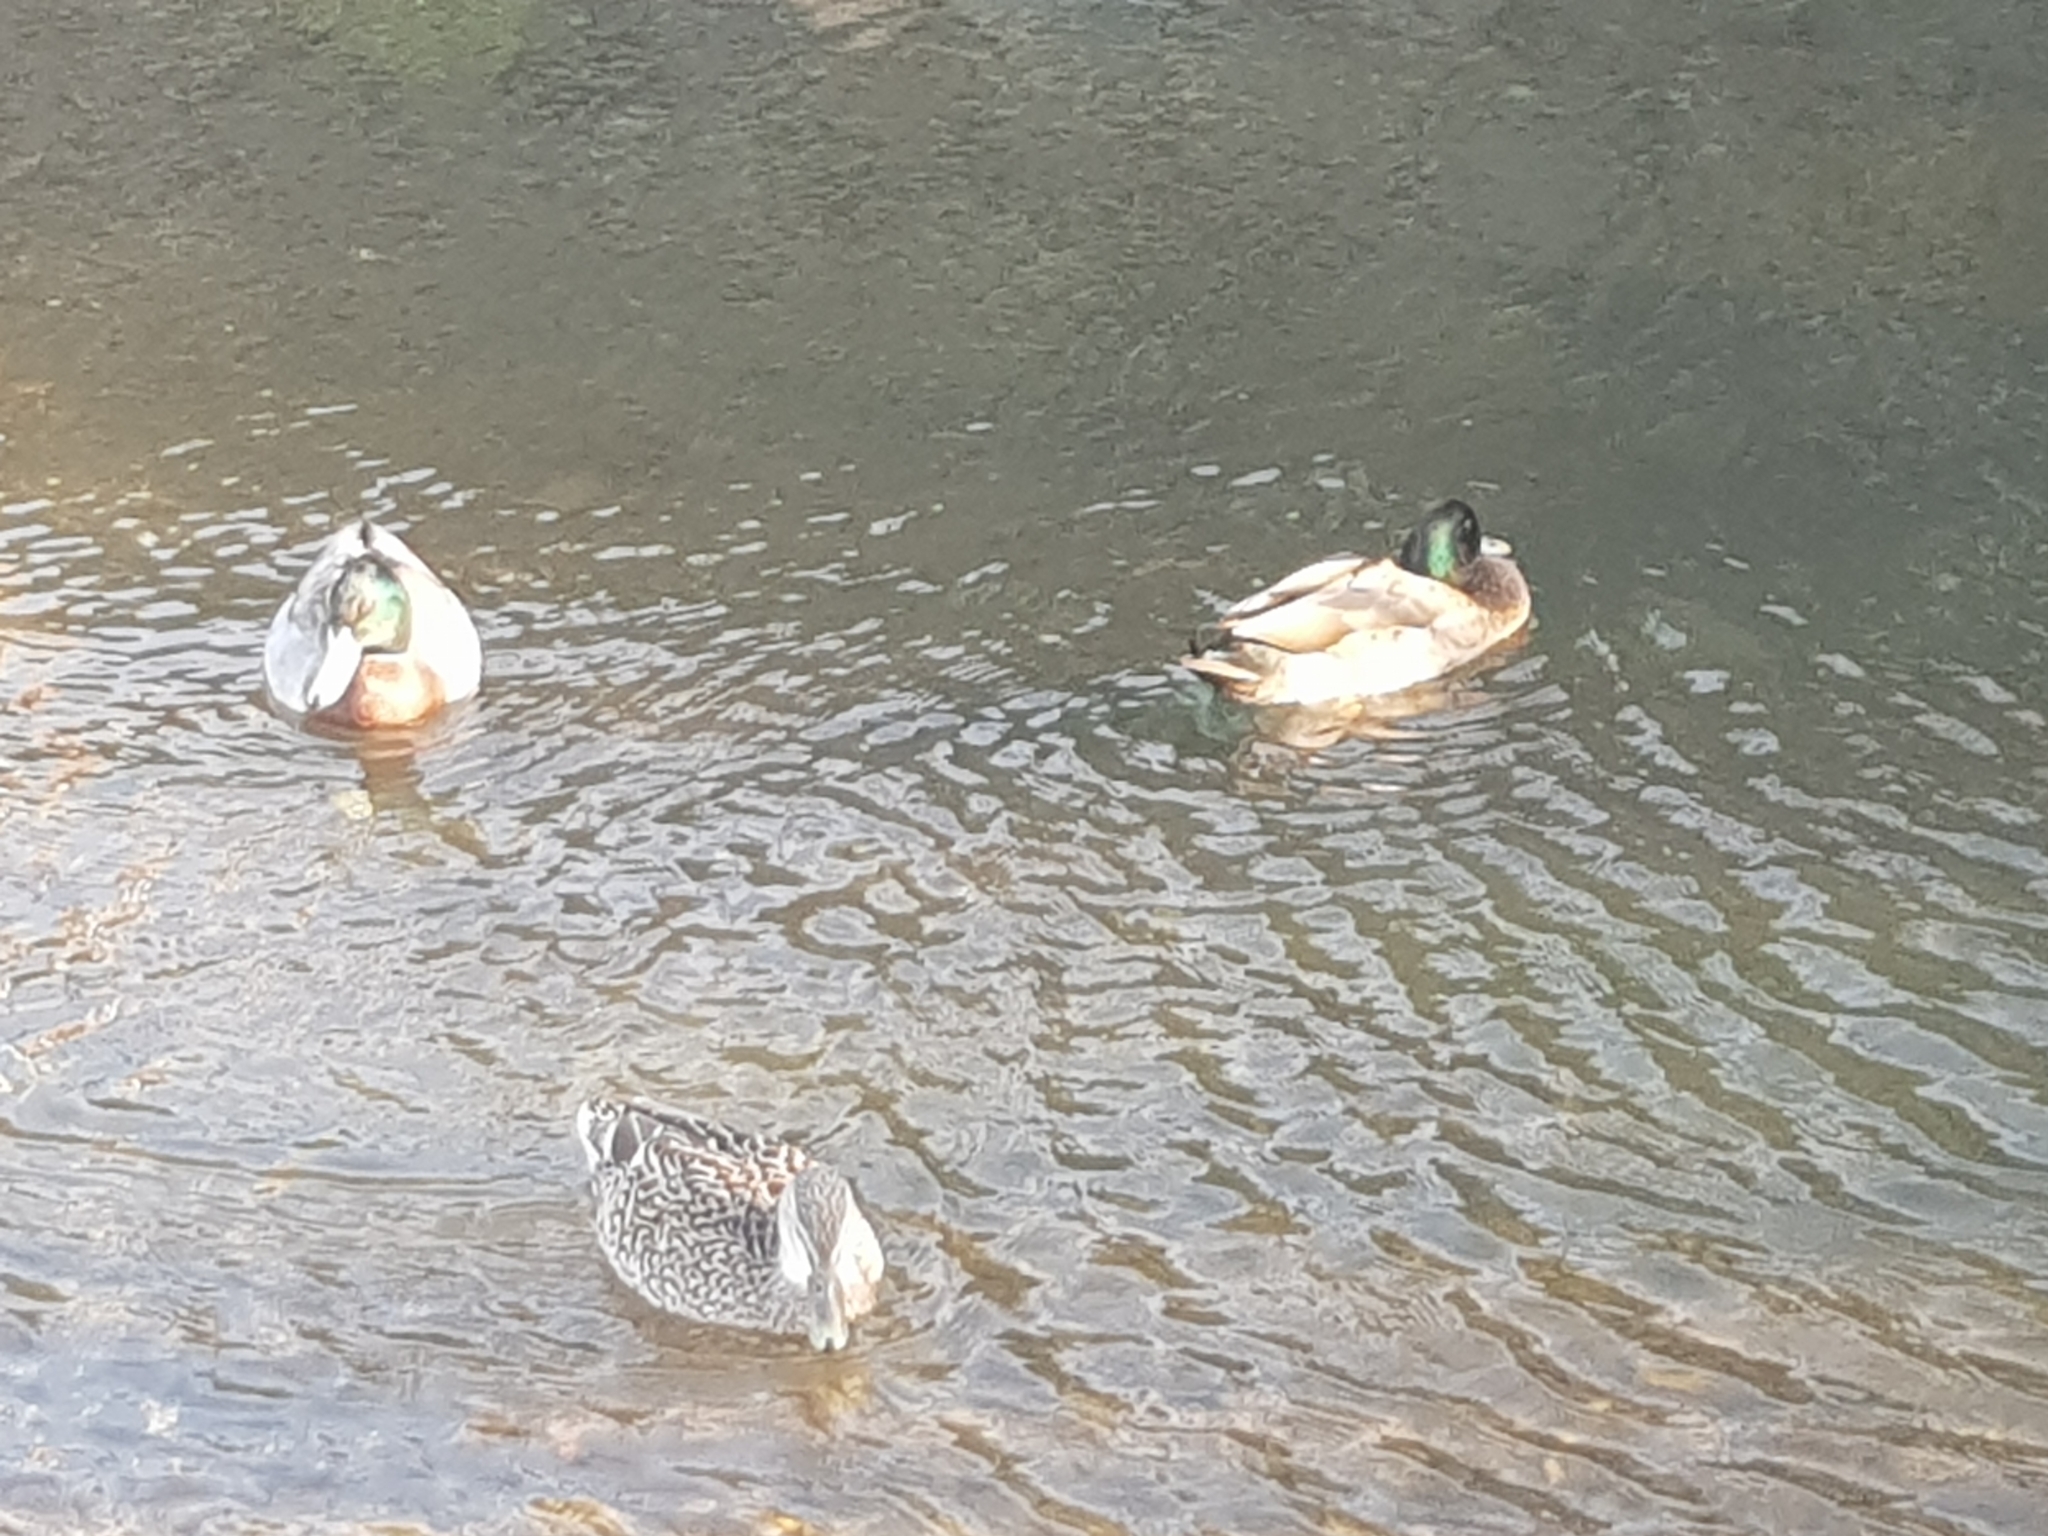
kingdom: Animalia
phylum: Chordata
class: Aves
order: Anseriformes
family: Anatidae
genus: Anas
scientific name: Anas platyrhynchos
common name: Mallard
